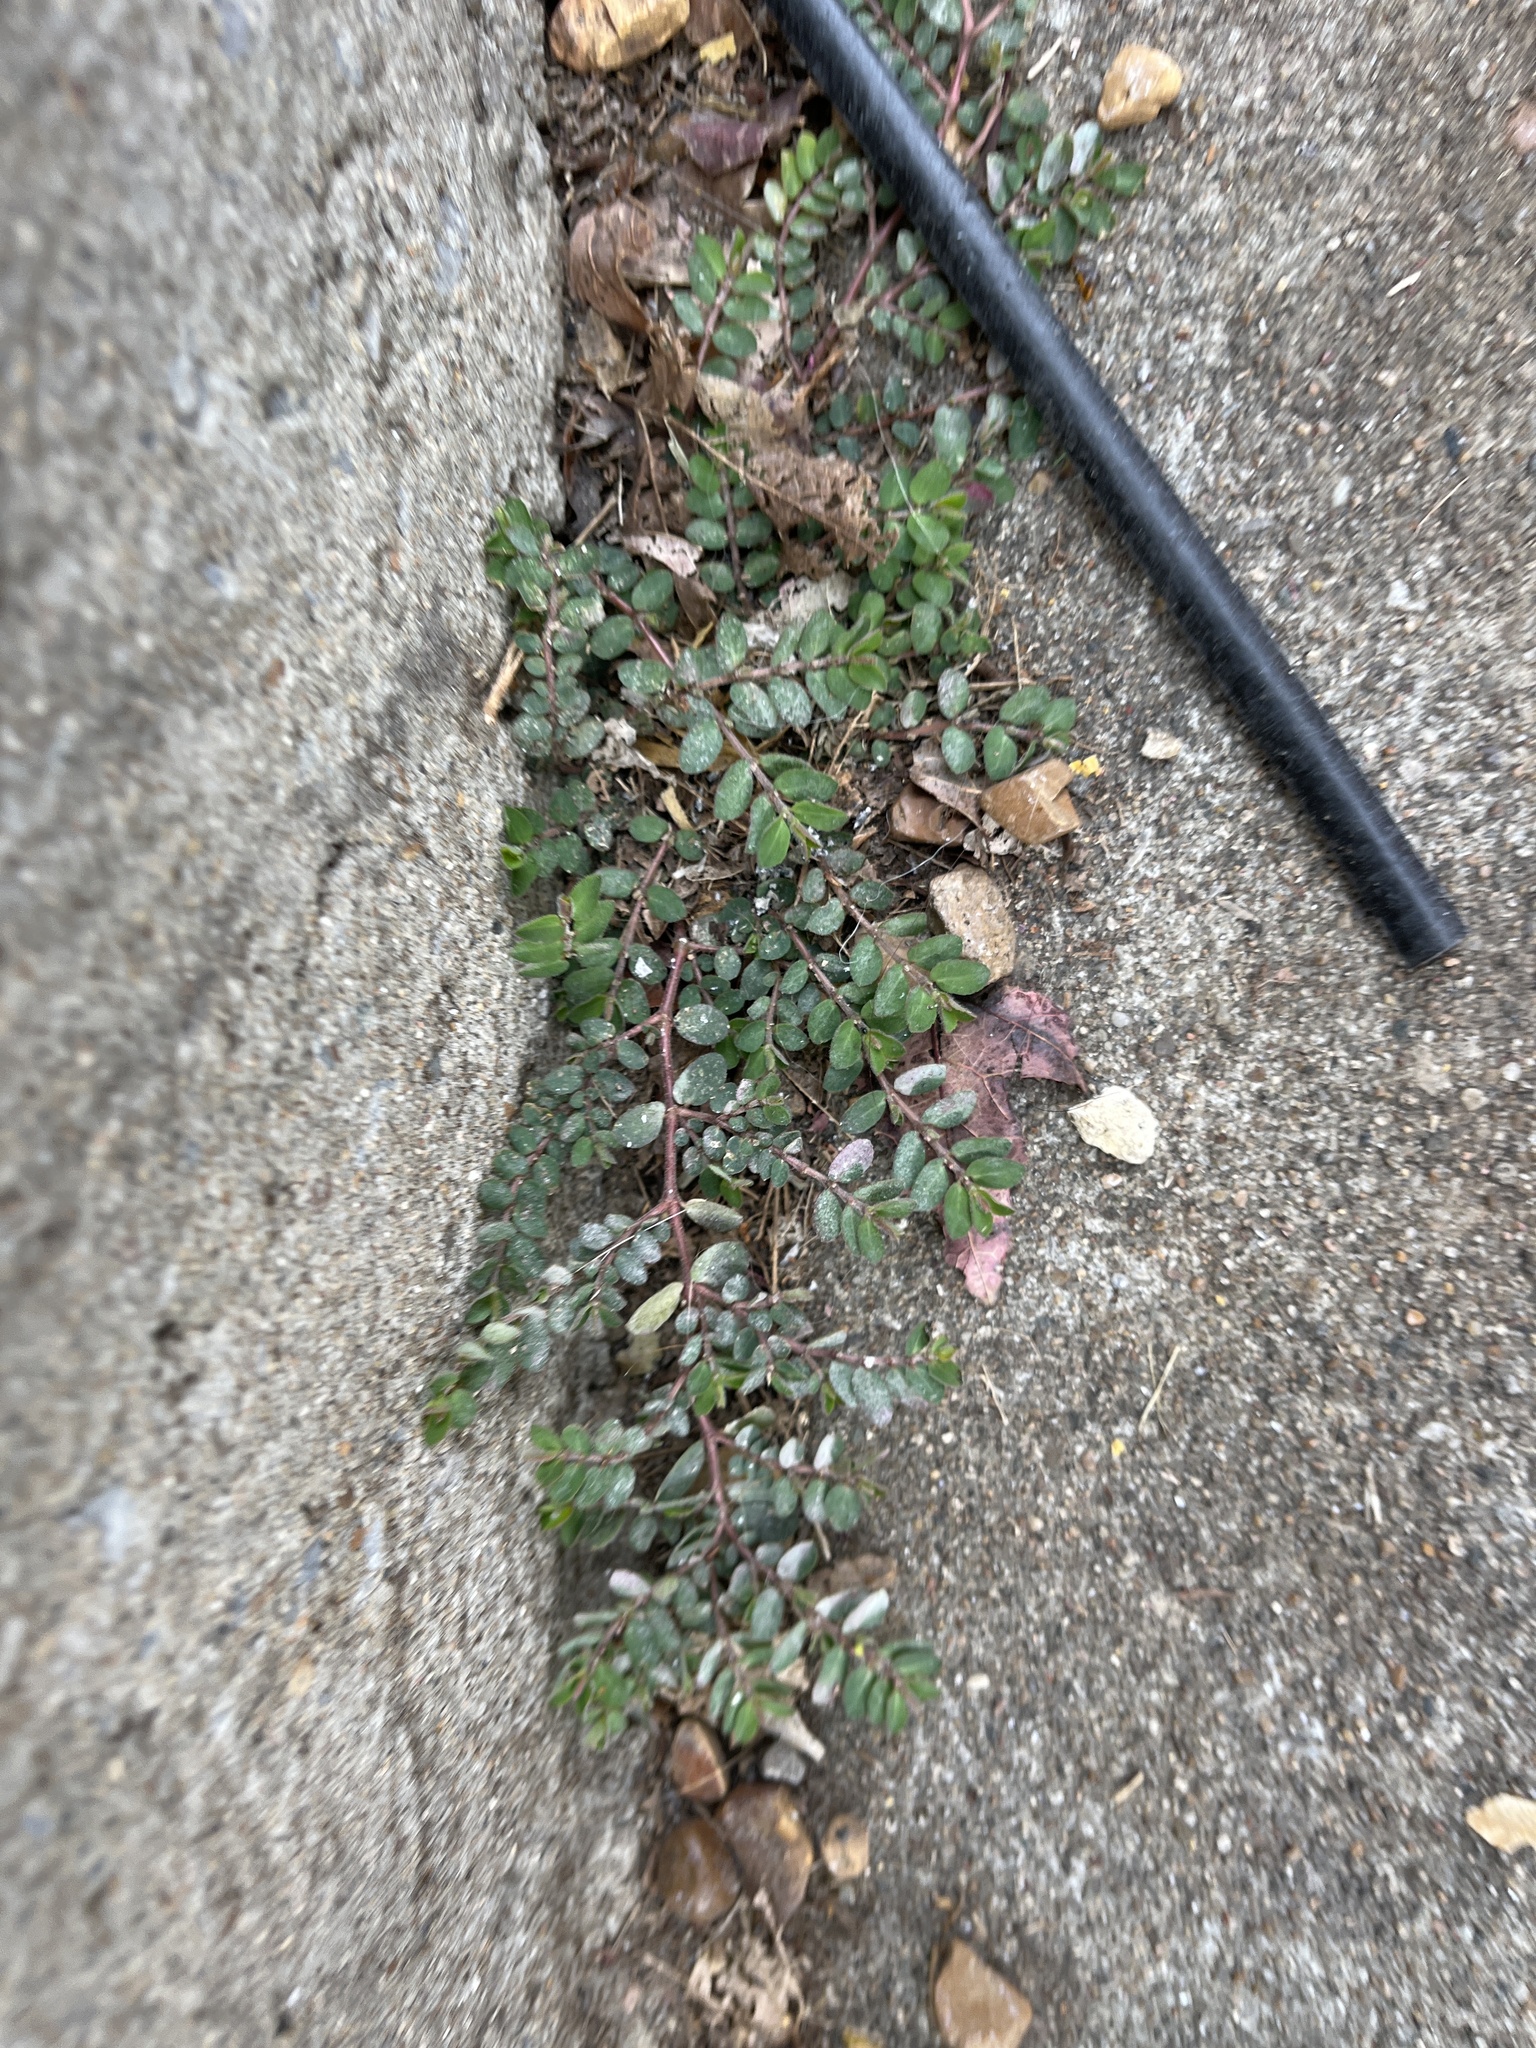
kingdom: Plantae
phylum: Tracheophyta
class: Magnoliopsida
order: Malpighiales
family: Euphorbiaceae
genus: Euphorbia
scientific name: Euphorbia prostrata
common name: Prostrate sandmat
